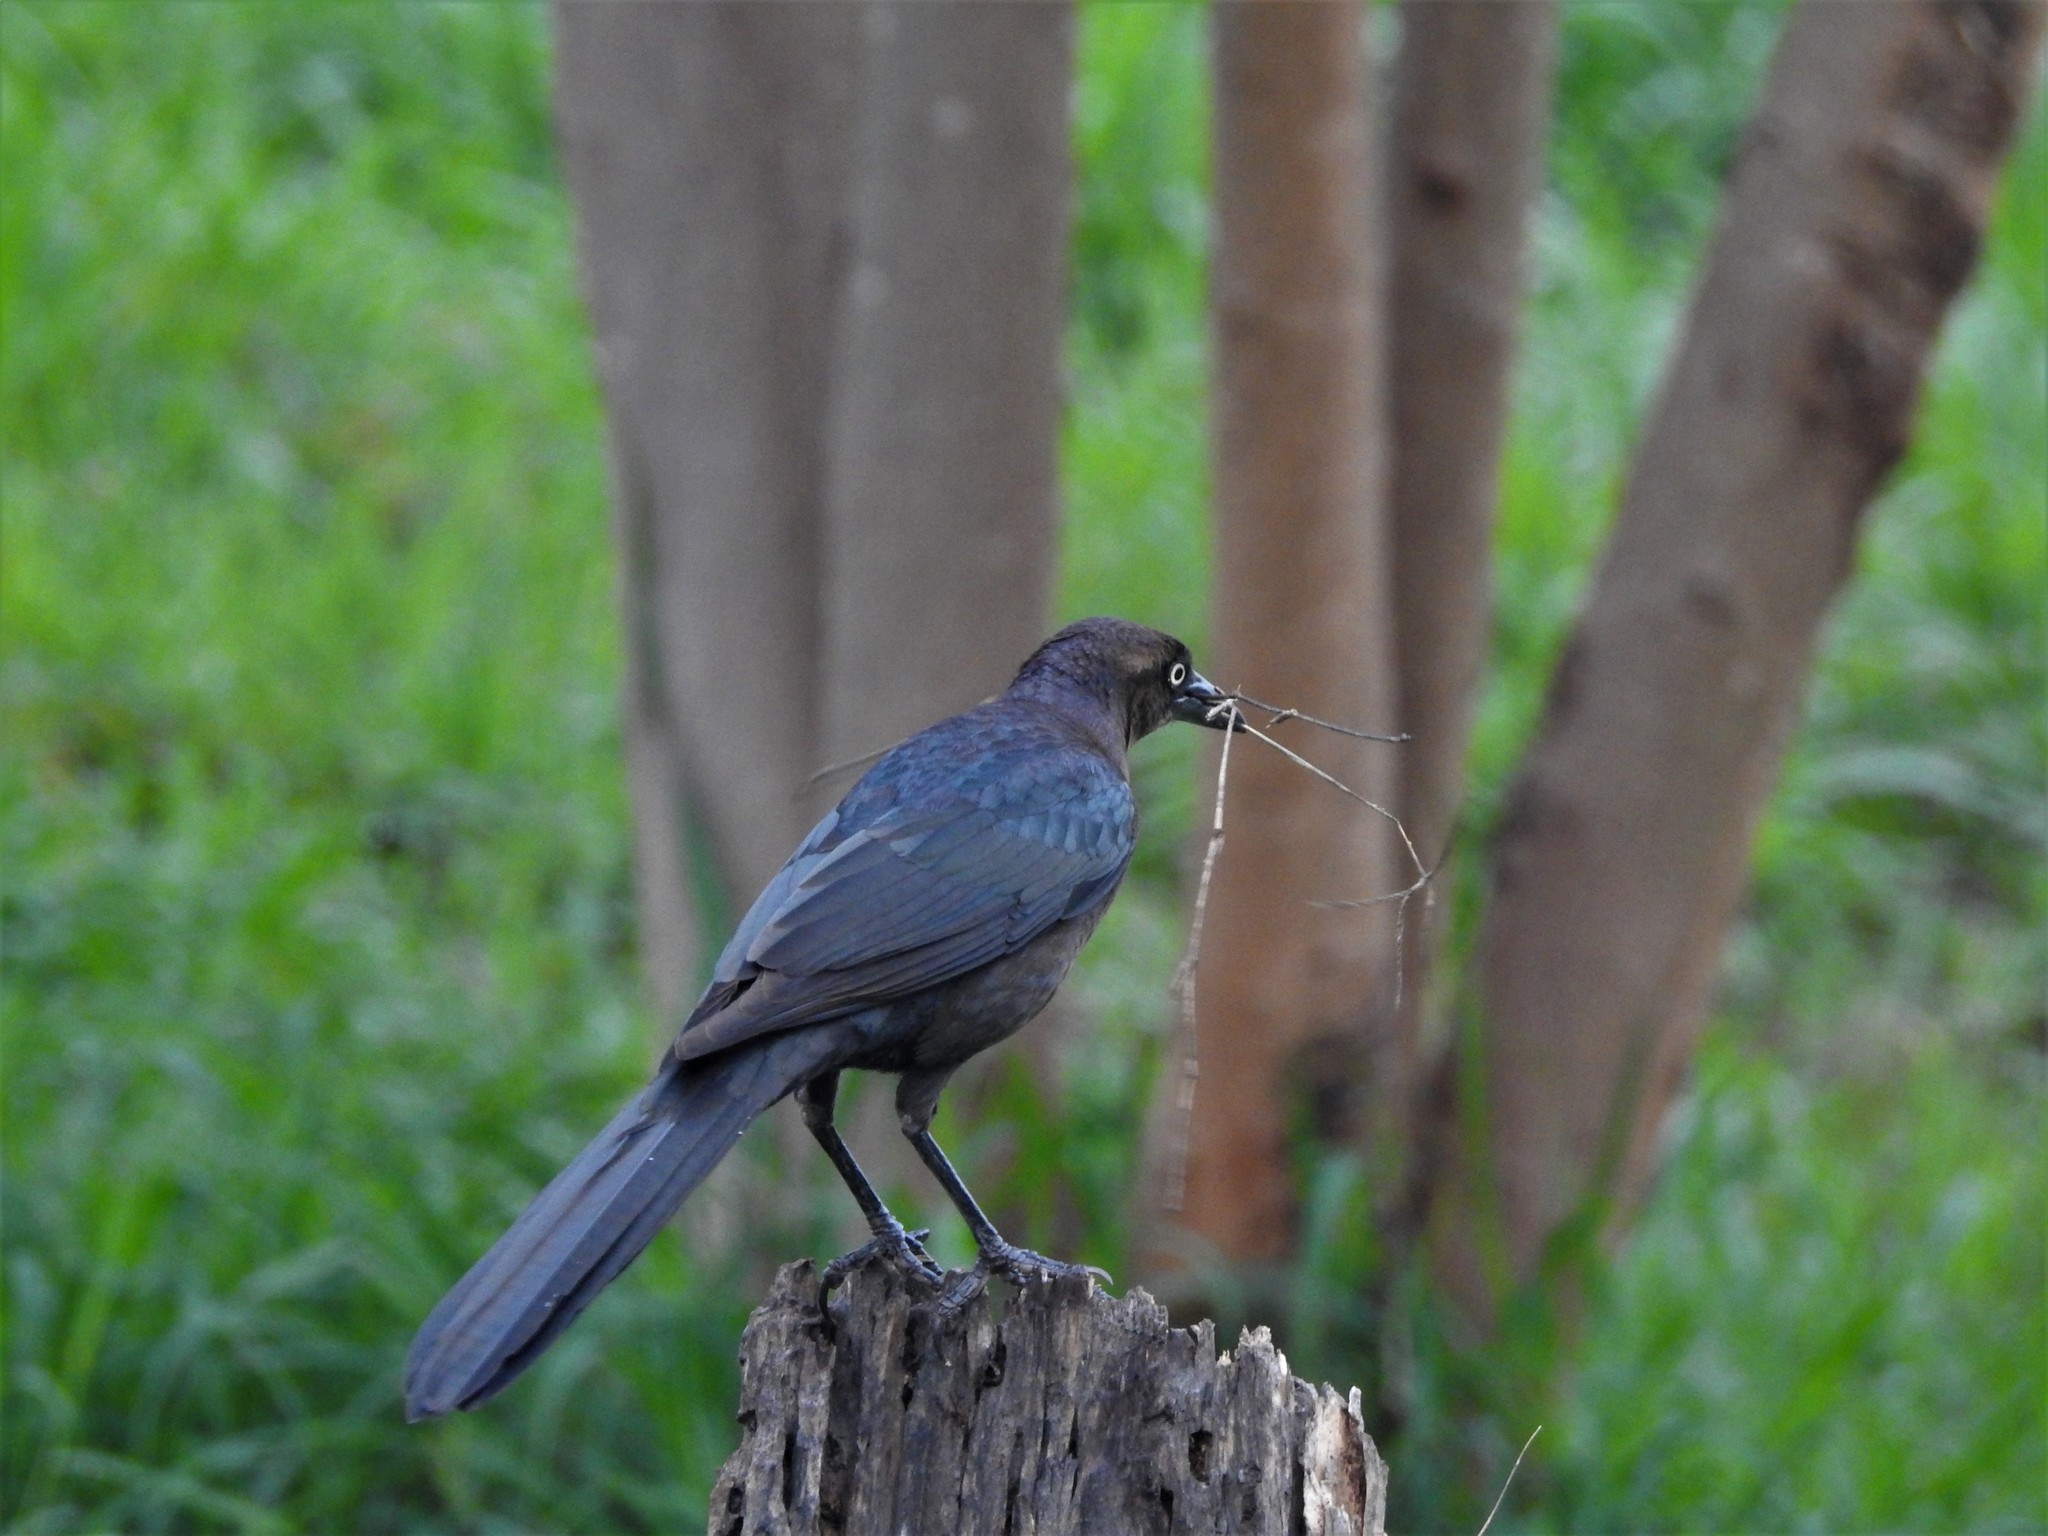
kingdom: Animalia
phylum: Chordata
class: Aves
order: Passeriformes
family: Icteridae
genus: Quiscalus
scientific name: Quiscalus mexicanus
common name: Great-tailed grackle
